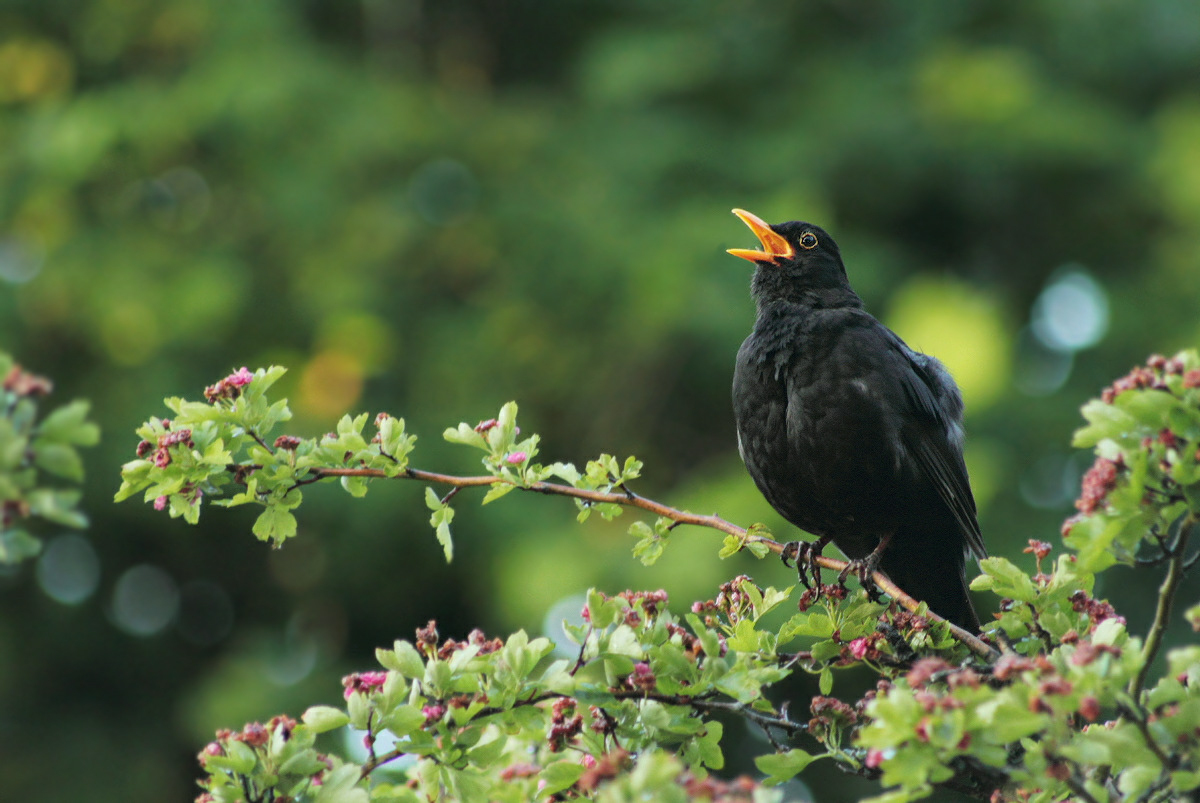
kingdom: Animalia
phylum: Chordata
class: Aves
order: Passeriformes
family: Turdidae
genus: Turdus
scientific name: Turdus merula
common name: Common blackbird
